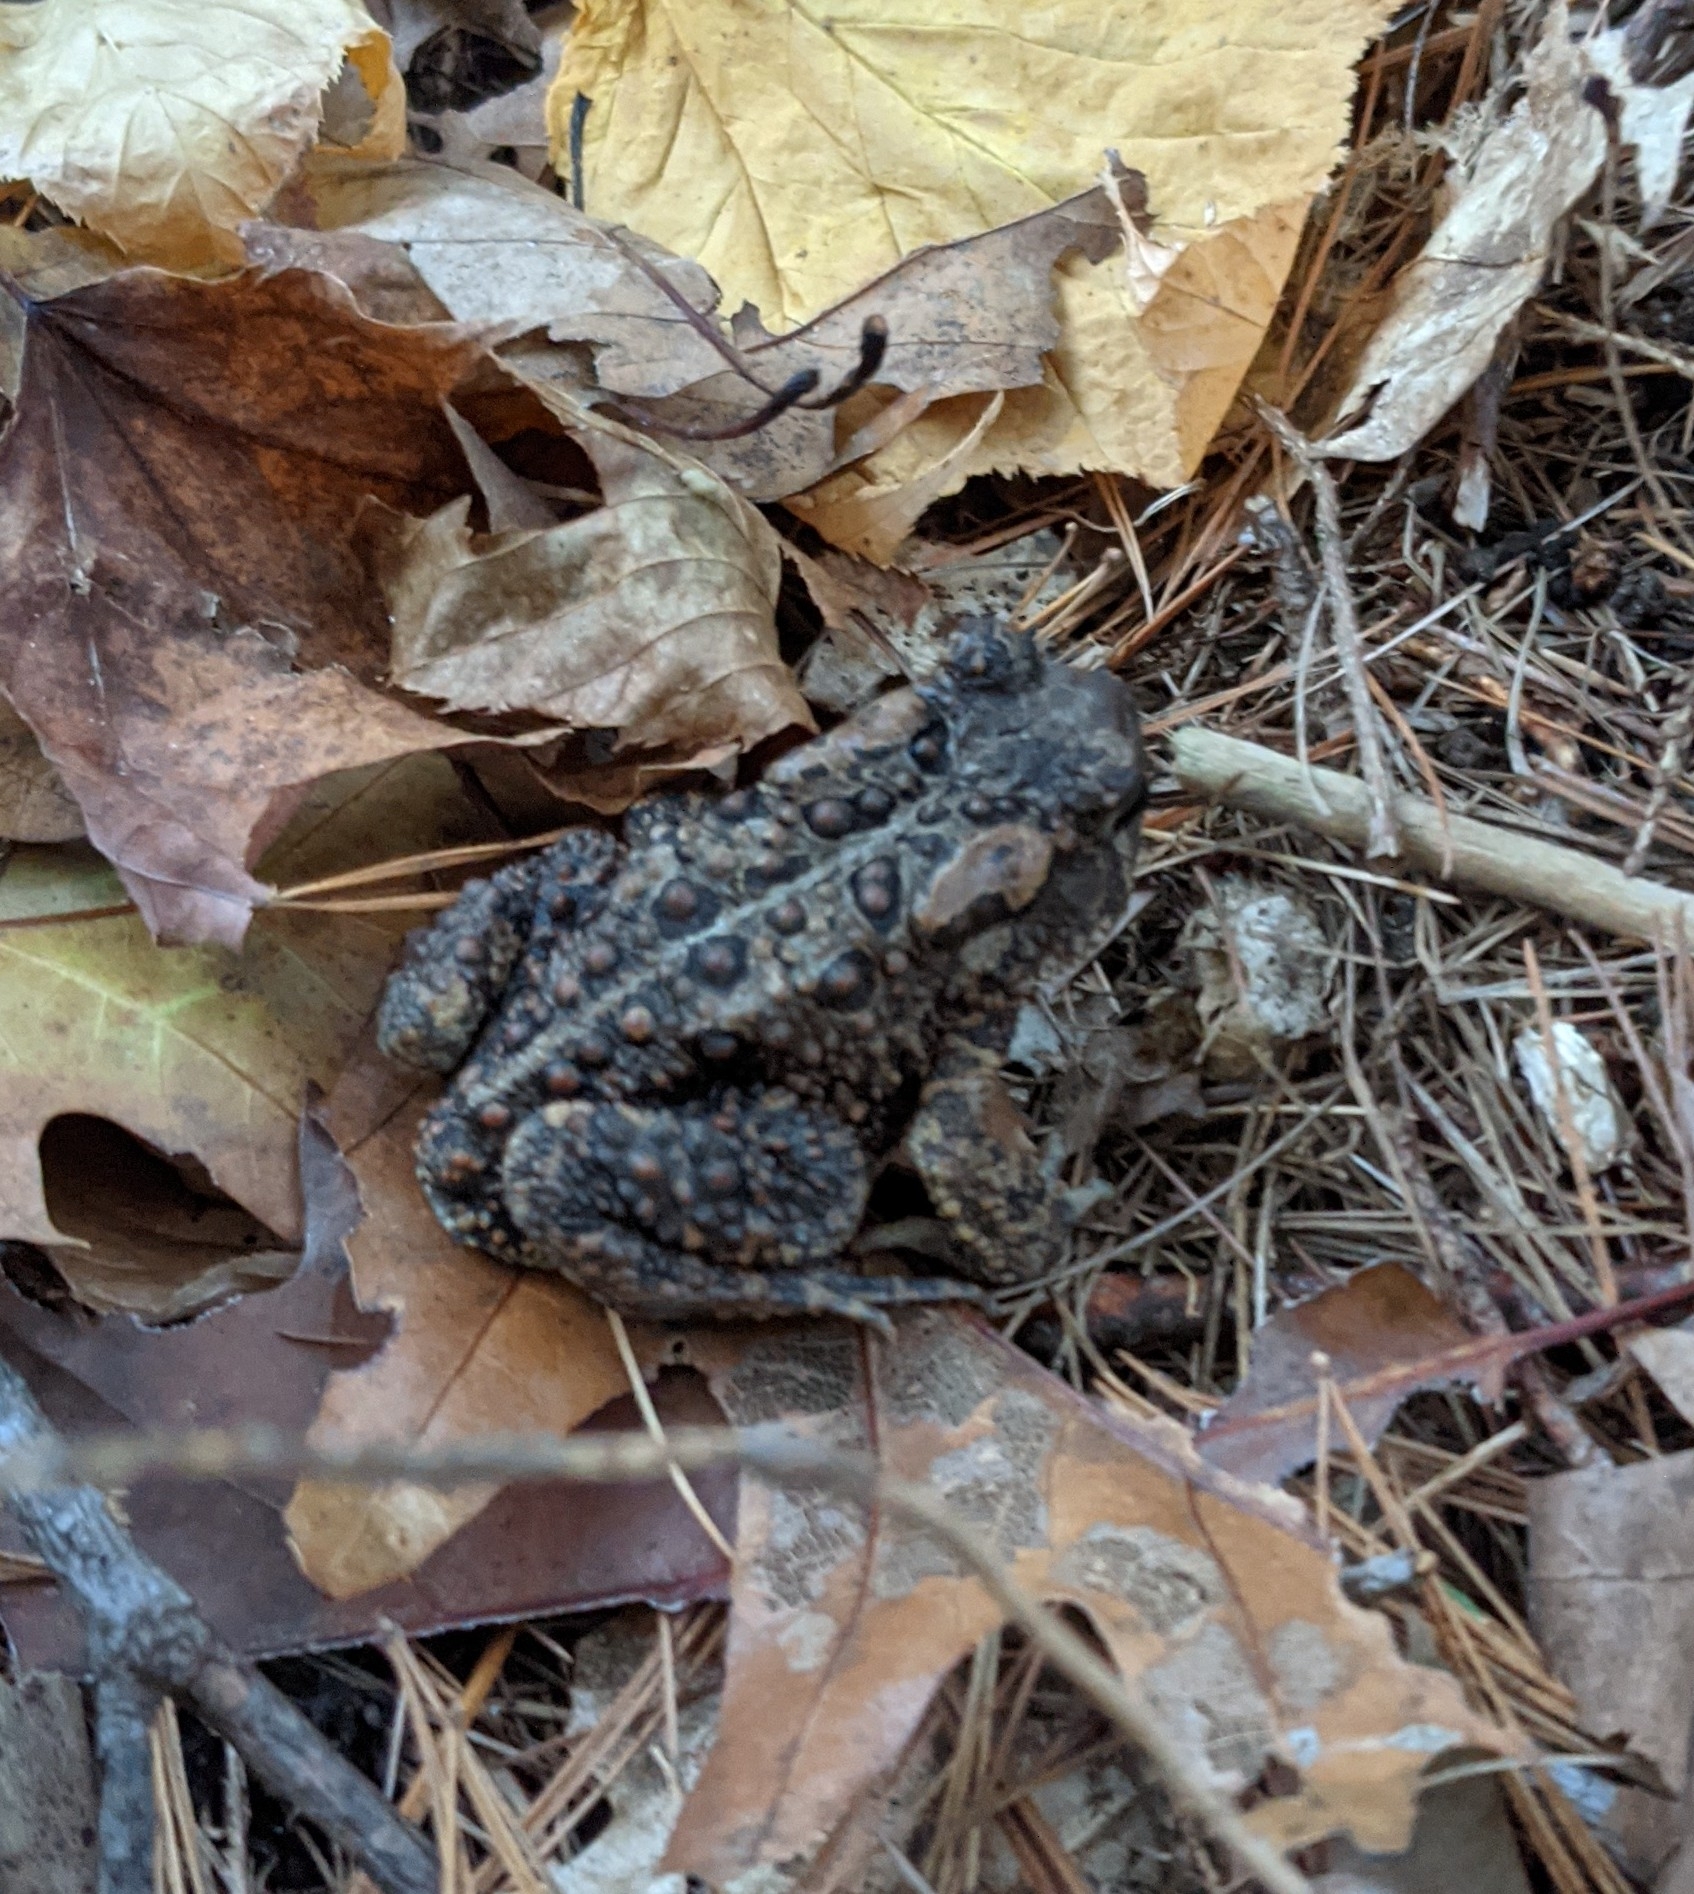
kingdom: Animalia
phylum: Chordata
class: Amphibia
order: Anura
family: Bufonidae
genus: Anaxyrus
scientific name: Anaxyrus americanus
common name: American toad
